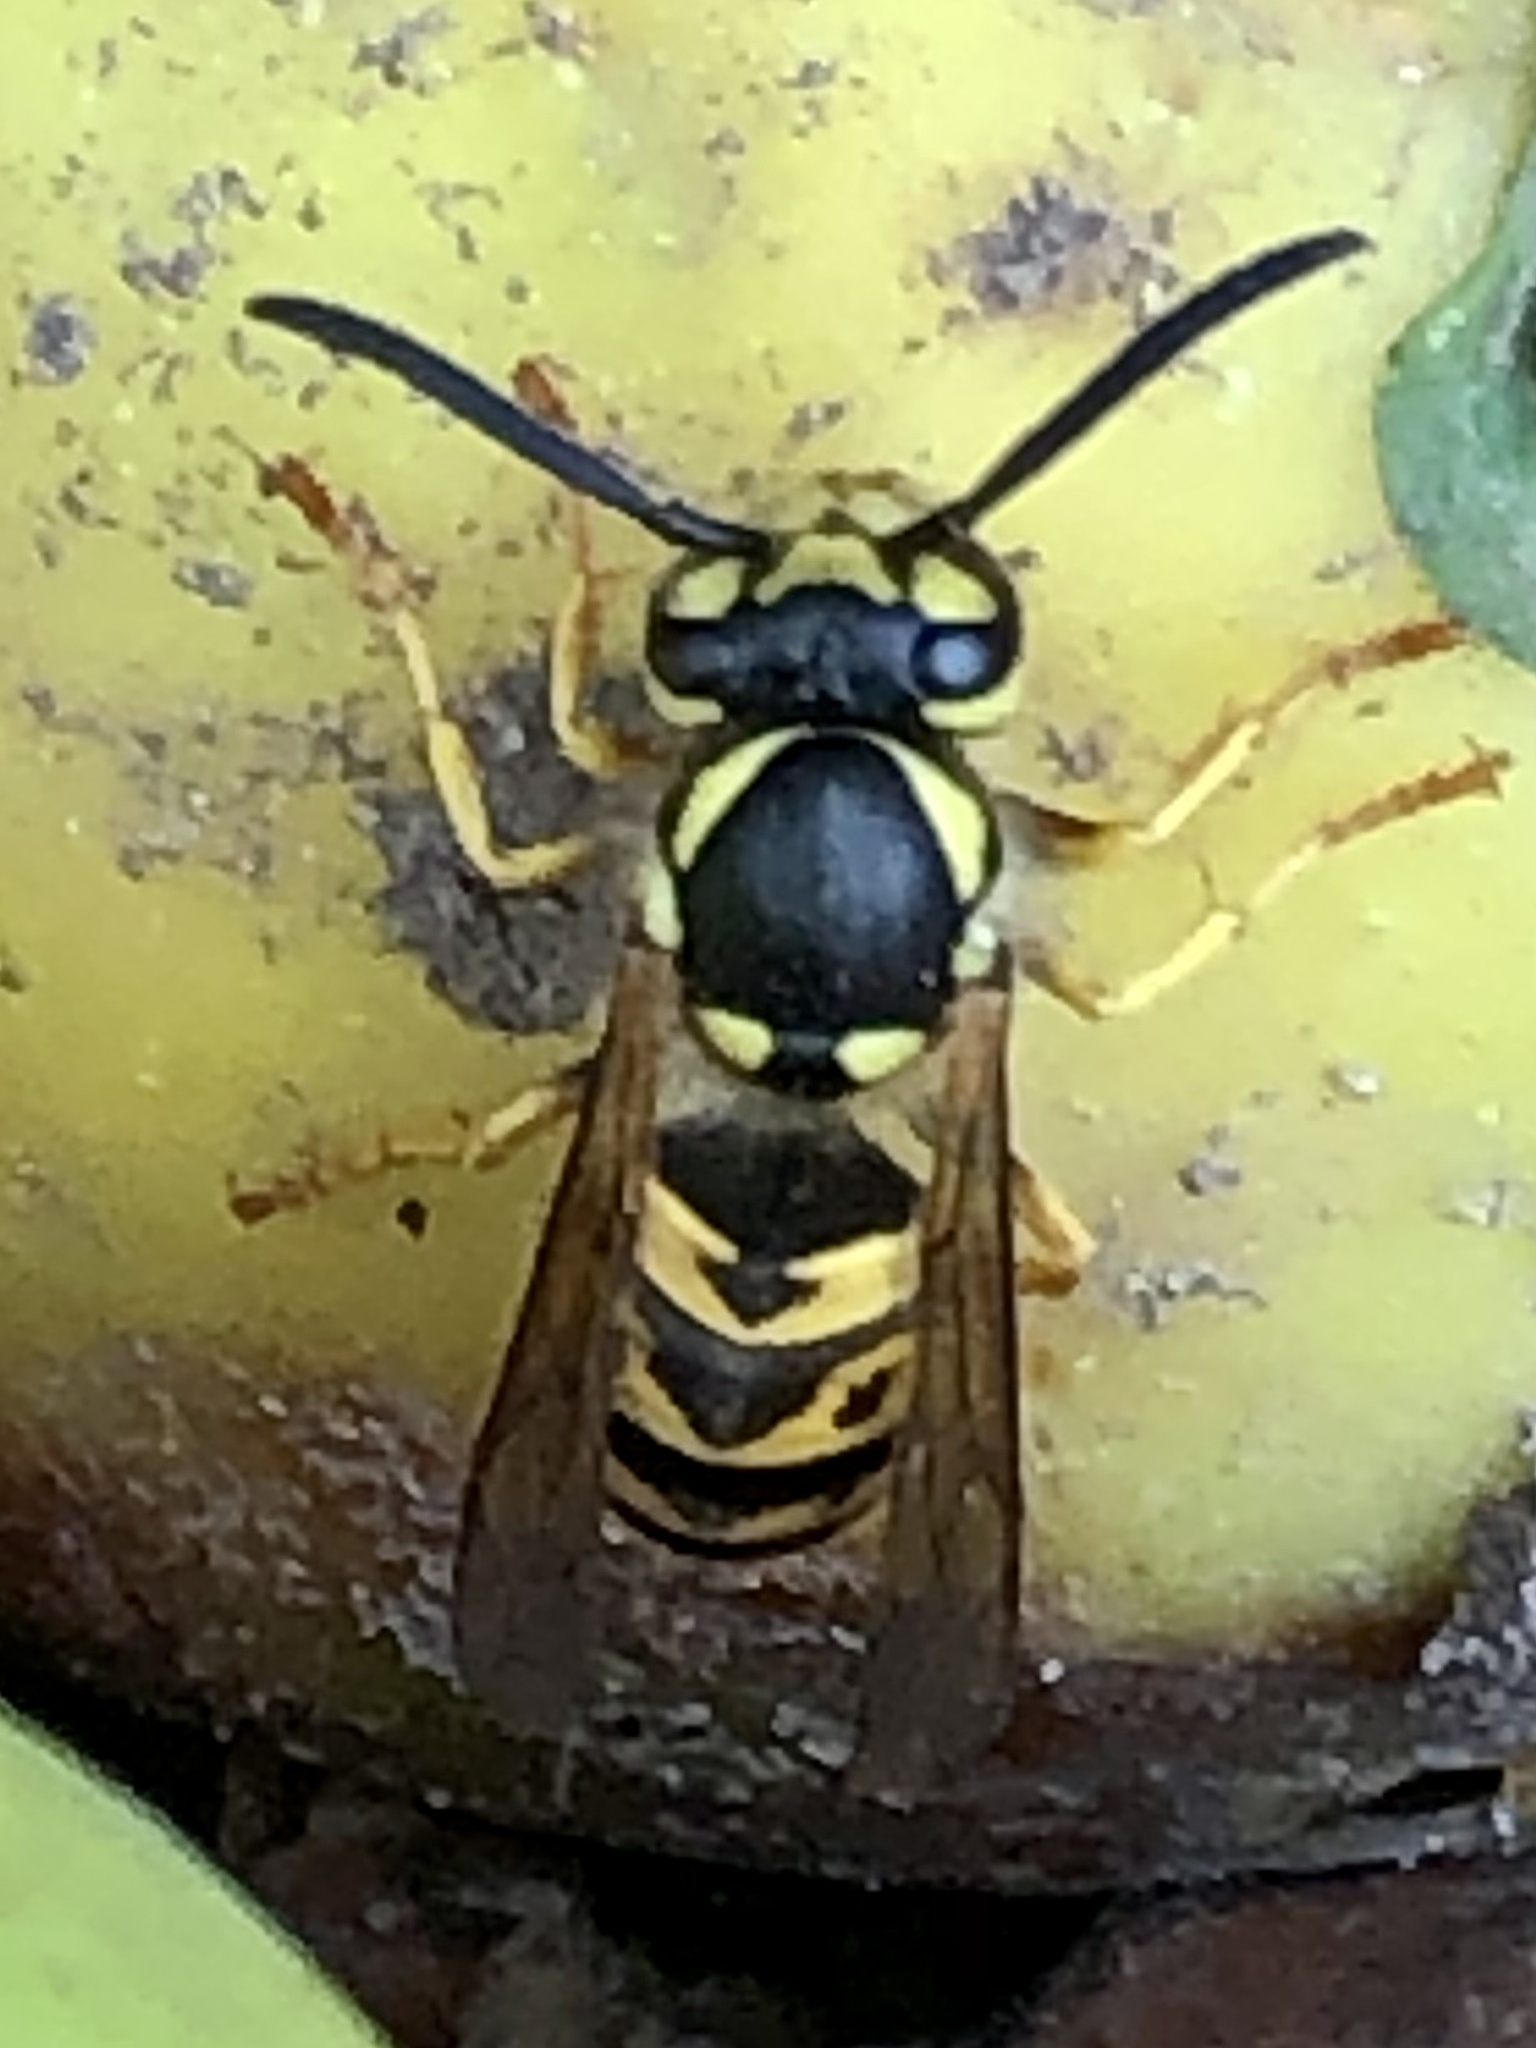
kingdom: Animalia
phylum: Arthropoda
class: Insecta
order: Hymenoptera
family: Vespidae
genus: Vespula
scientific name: Vespula germanica
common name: German wasp
